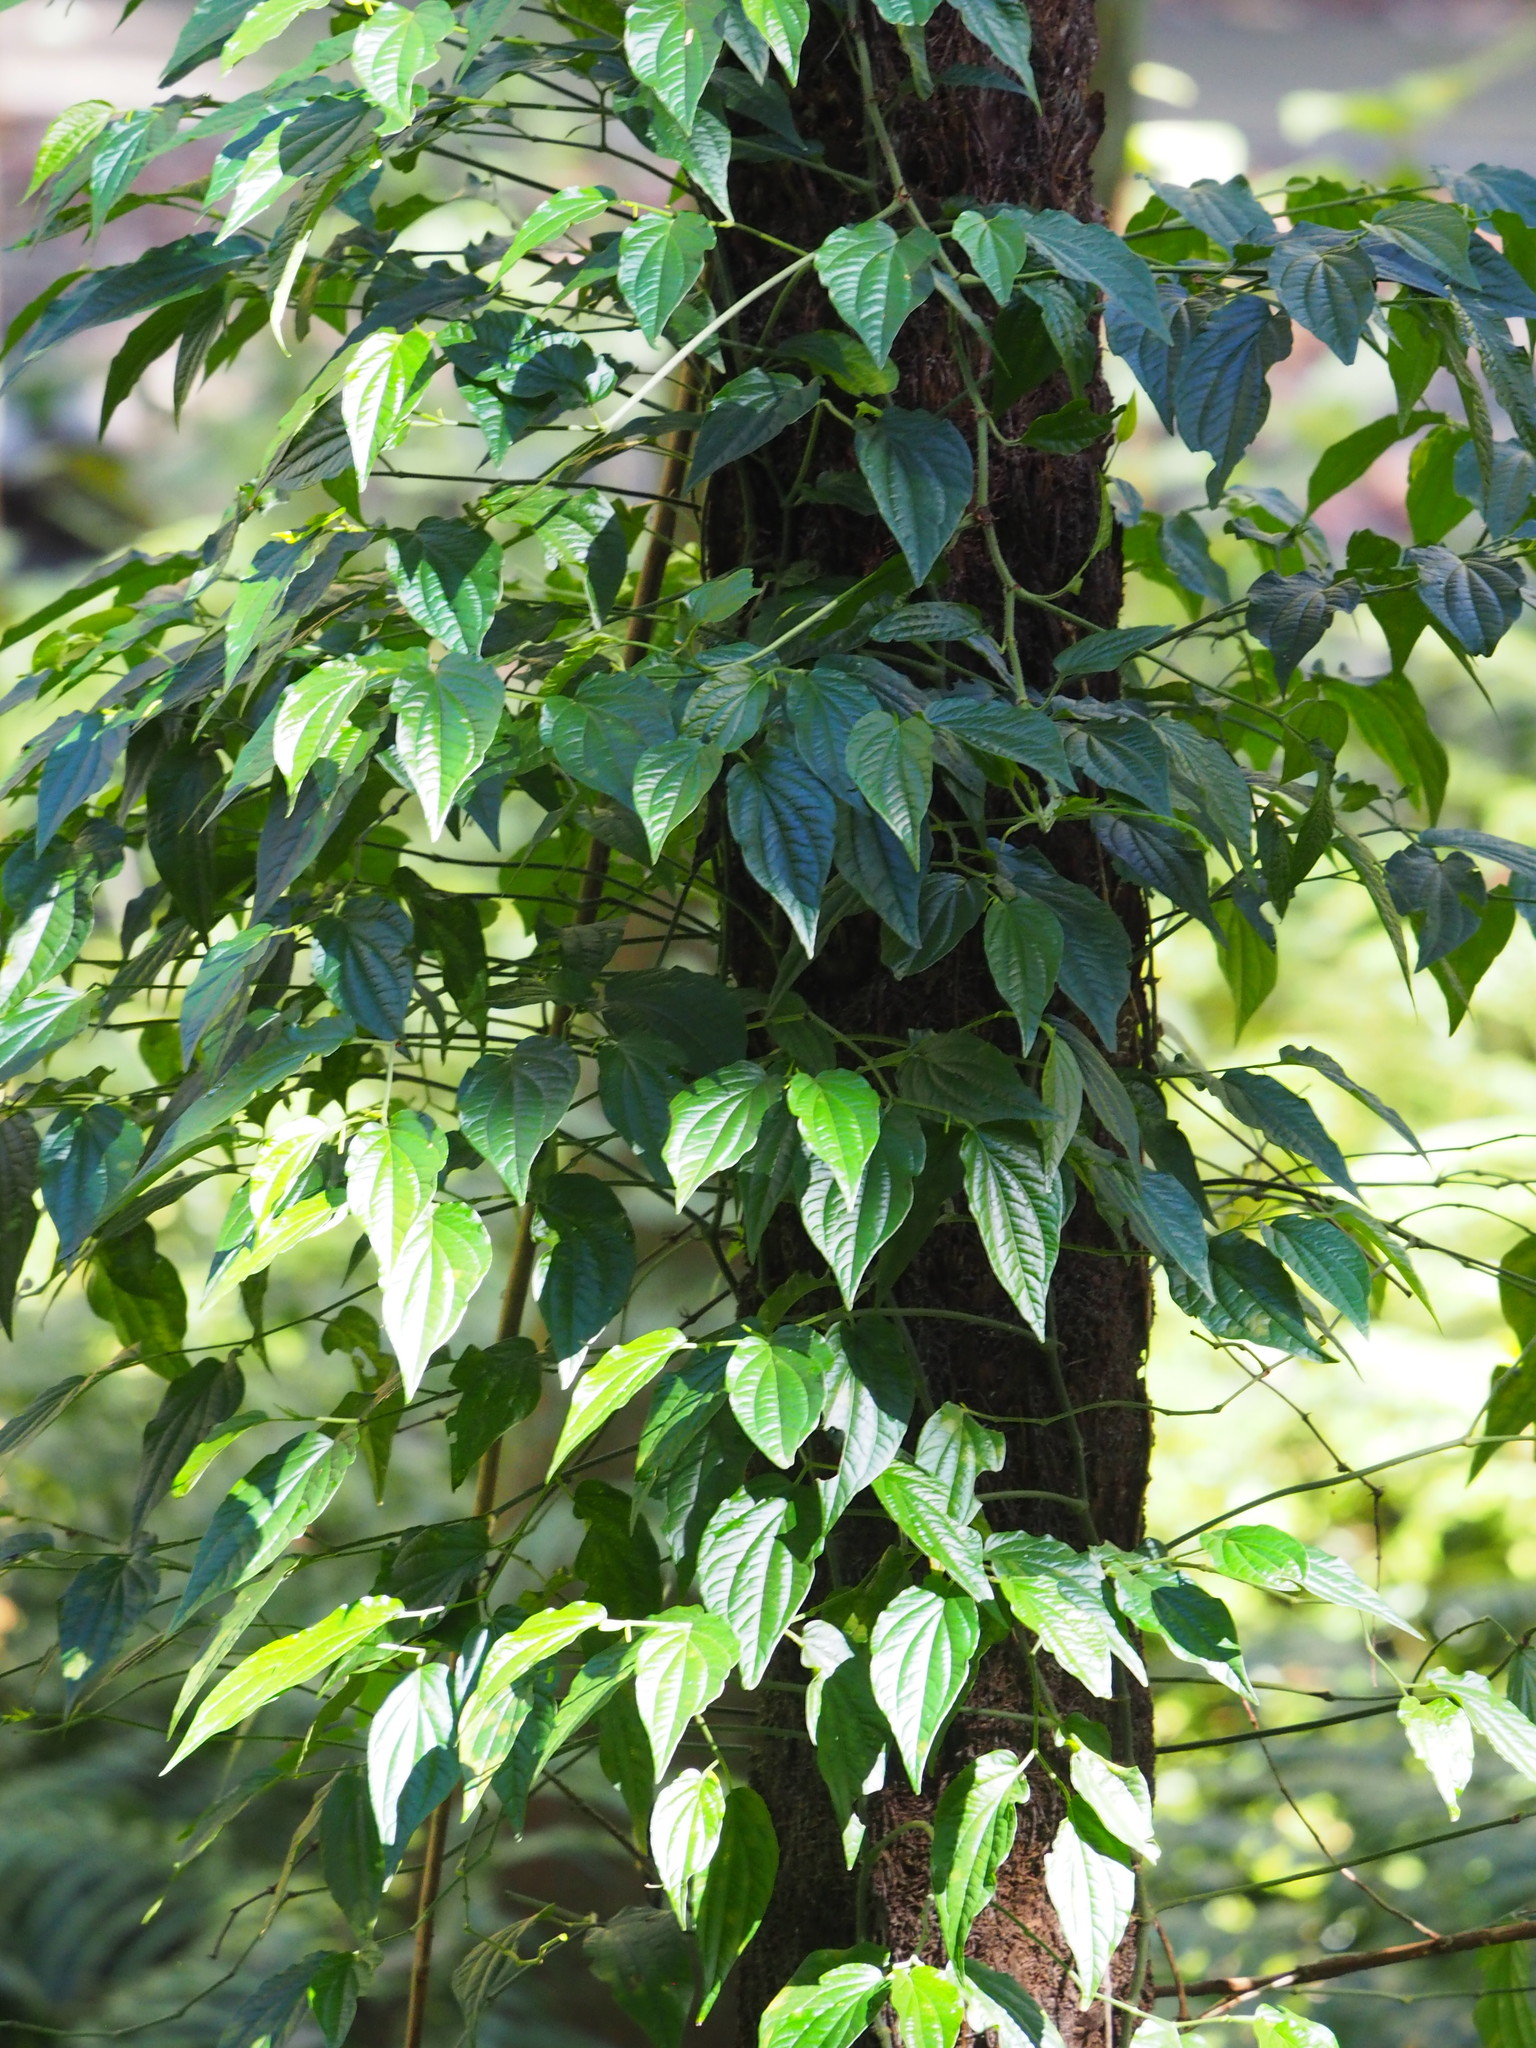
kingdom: Plantae
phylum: Tracheophyta
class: Magnoliopsida
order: Piperales
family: Piperaceae
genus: Piper
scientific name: Piper sintenense
